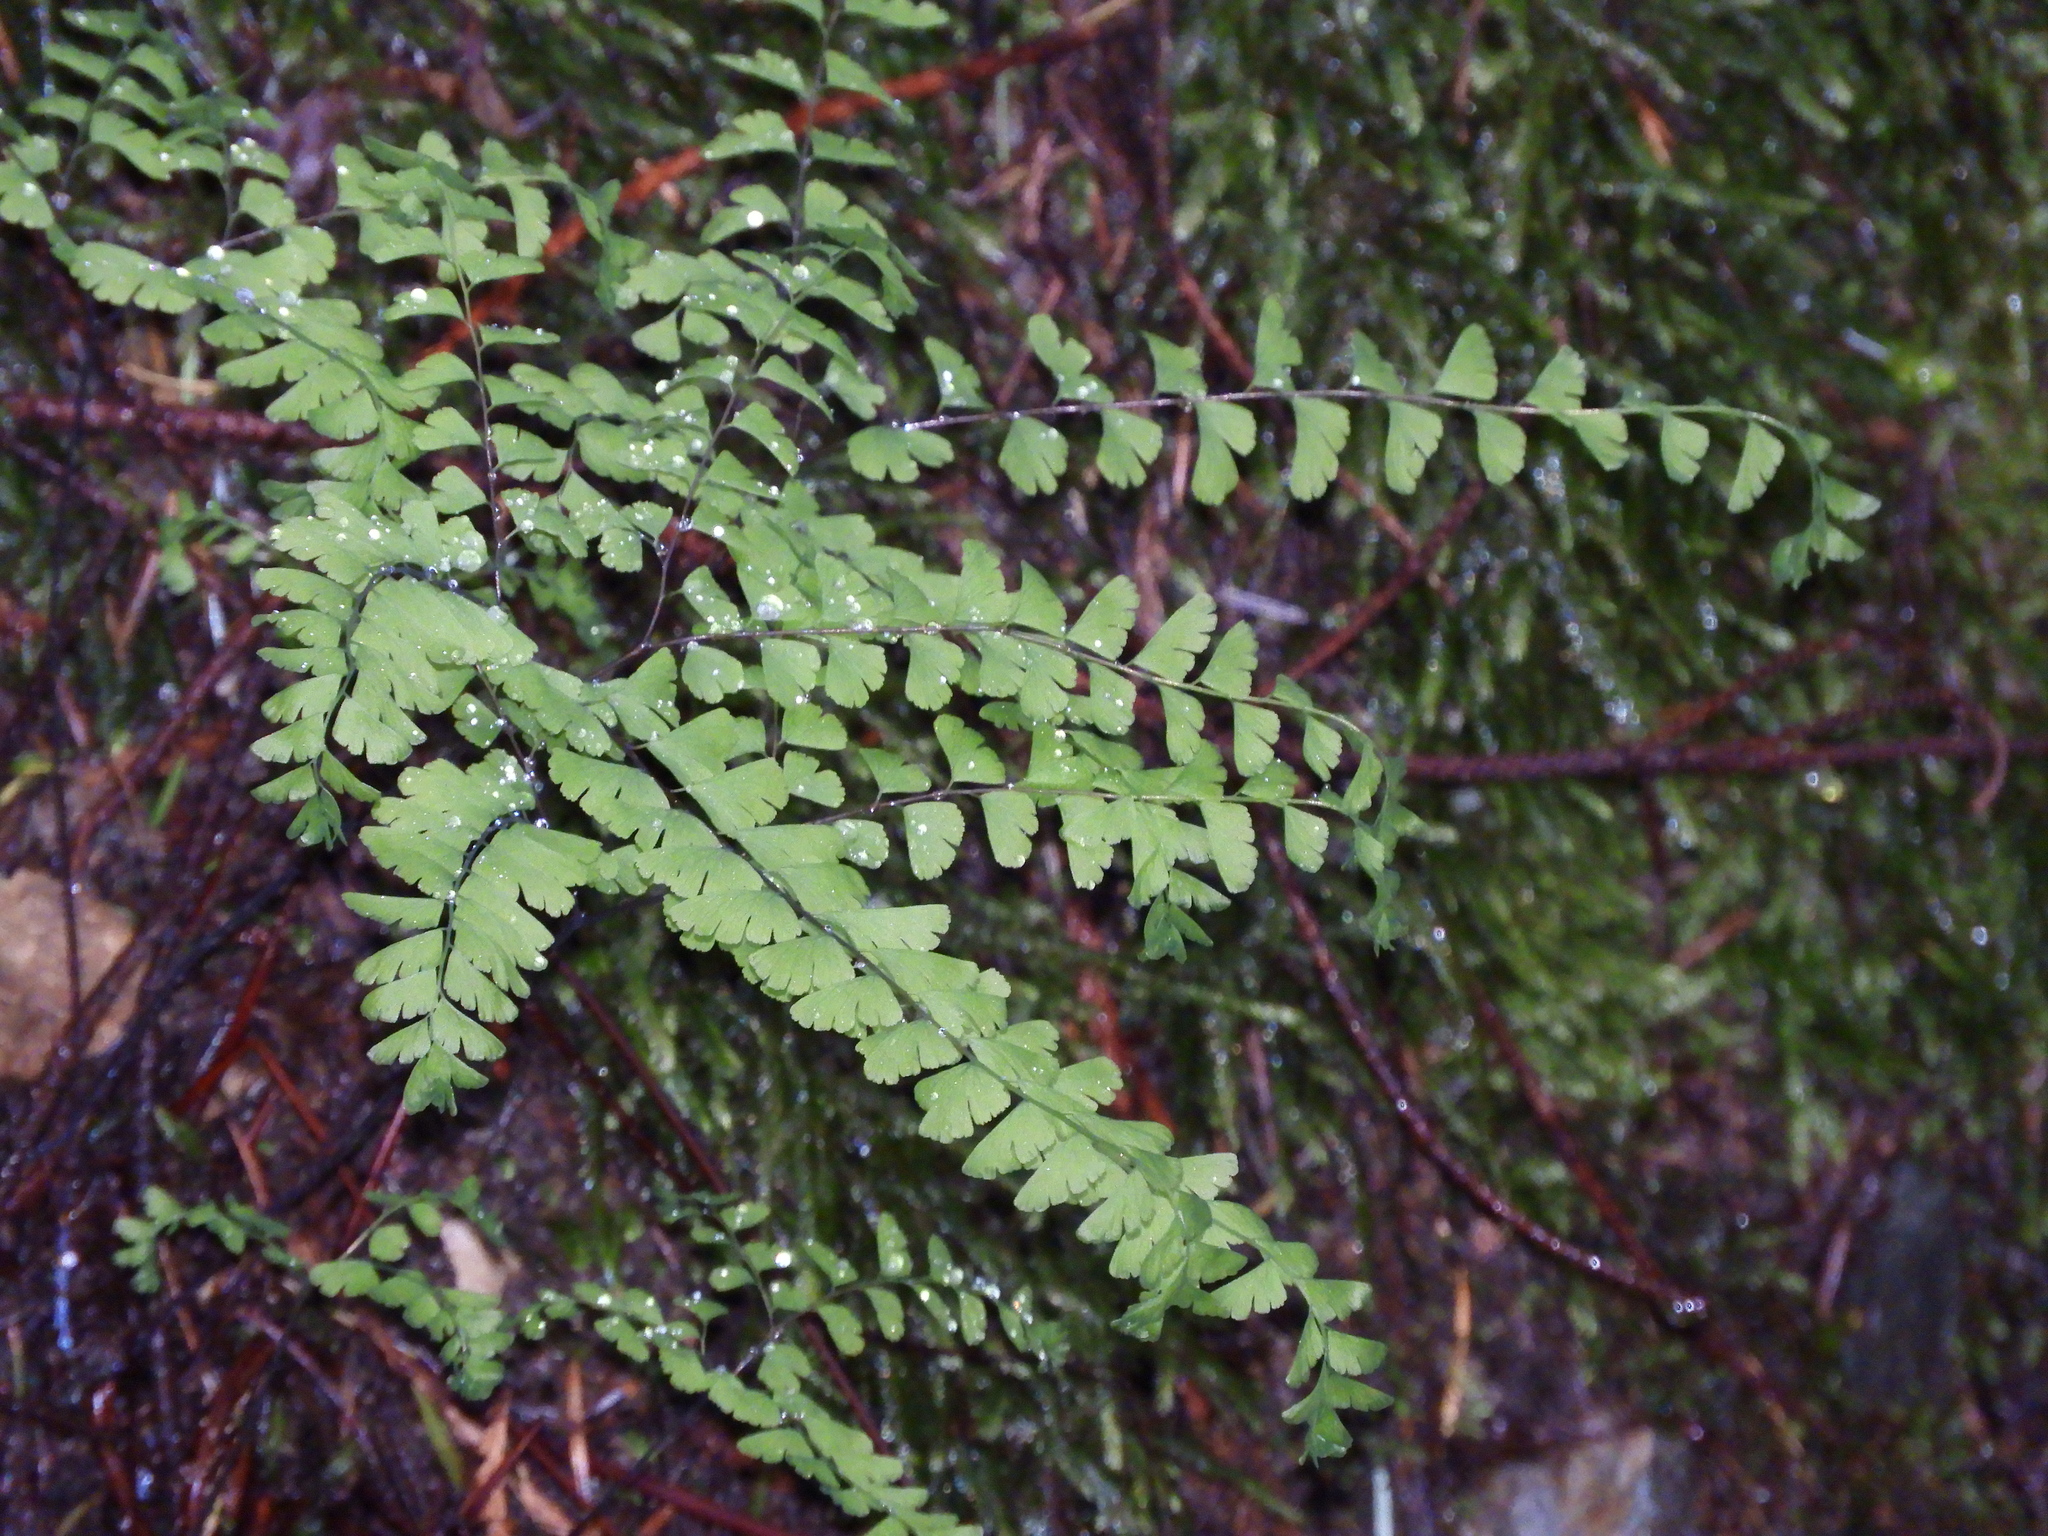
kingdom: Plantae
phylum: Tracheophyta
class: Polypodiopsida
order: Polypodiales
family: Pteridaceae
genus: Adiantum
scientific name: Adiantum aleuticum
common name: Aleutian maidenhair fern
